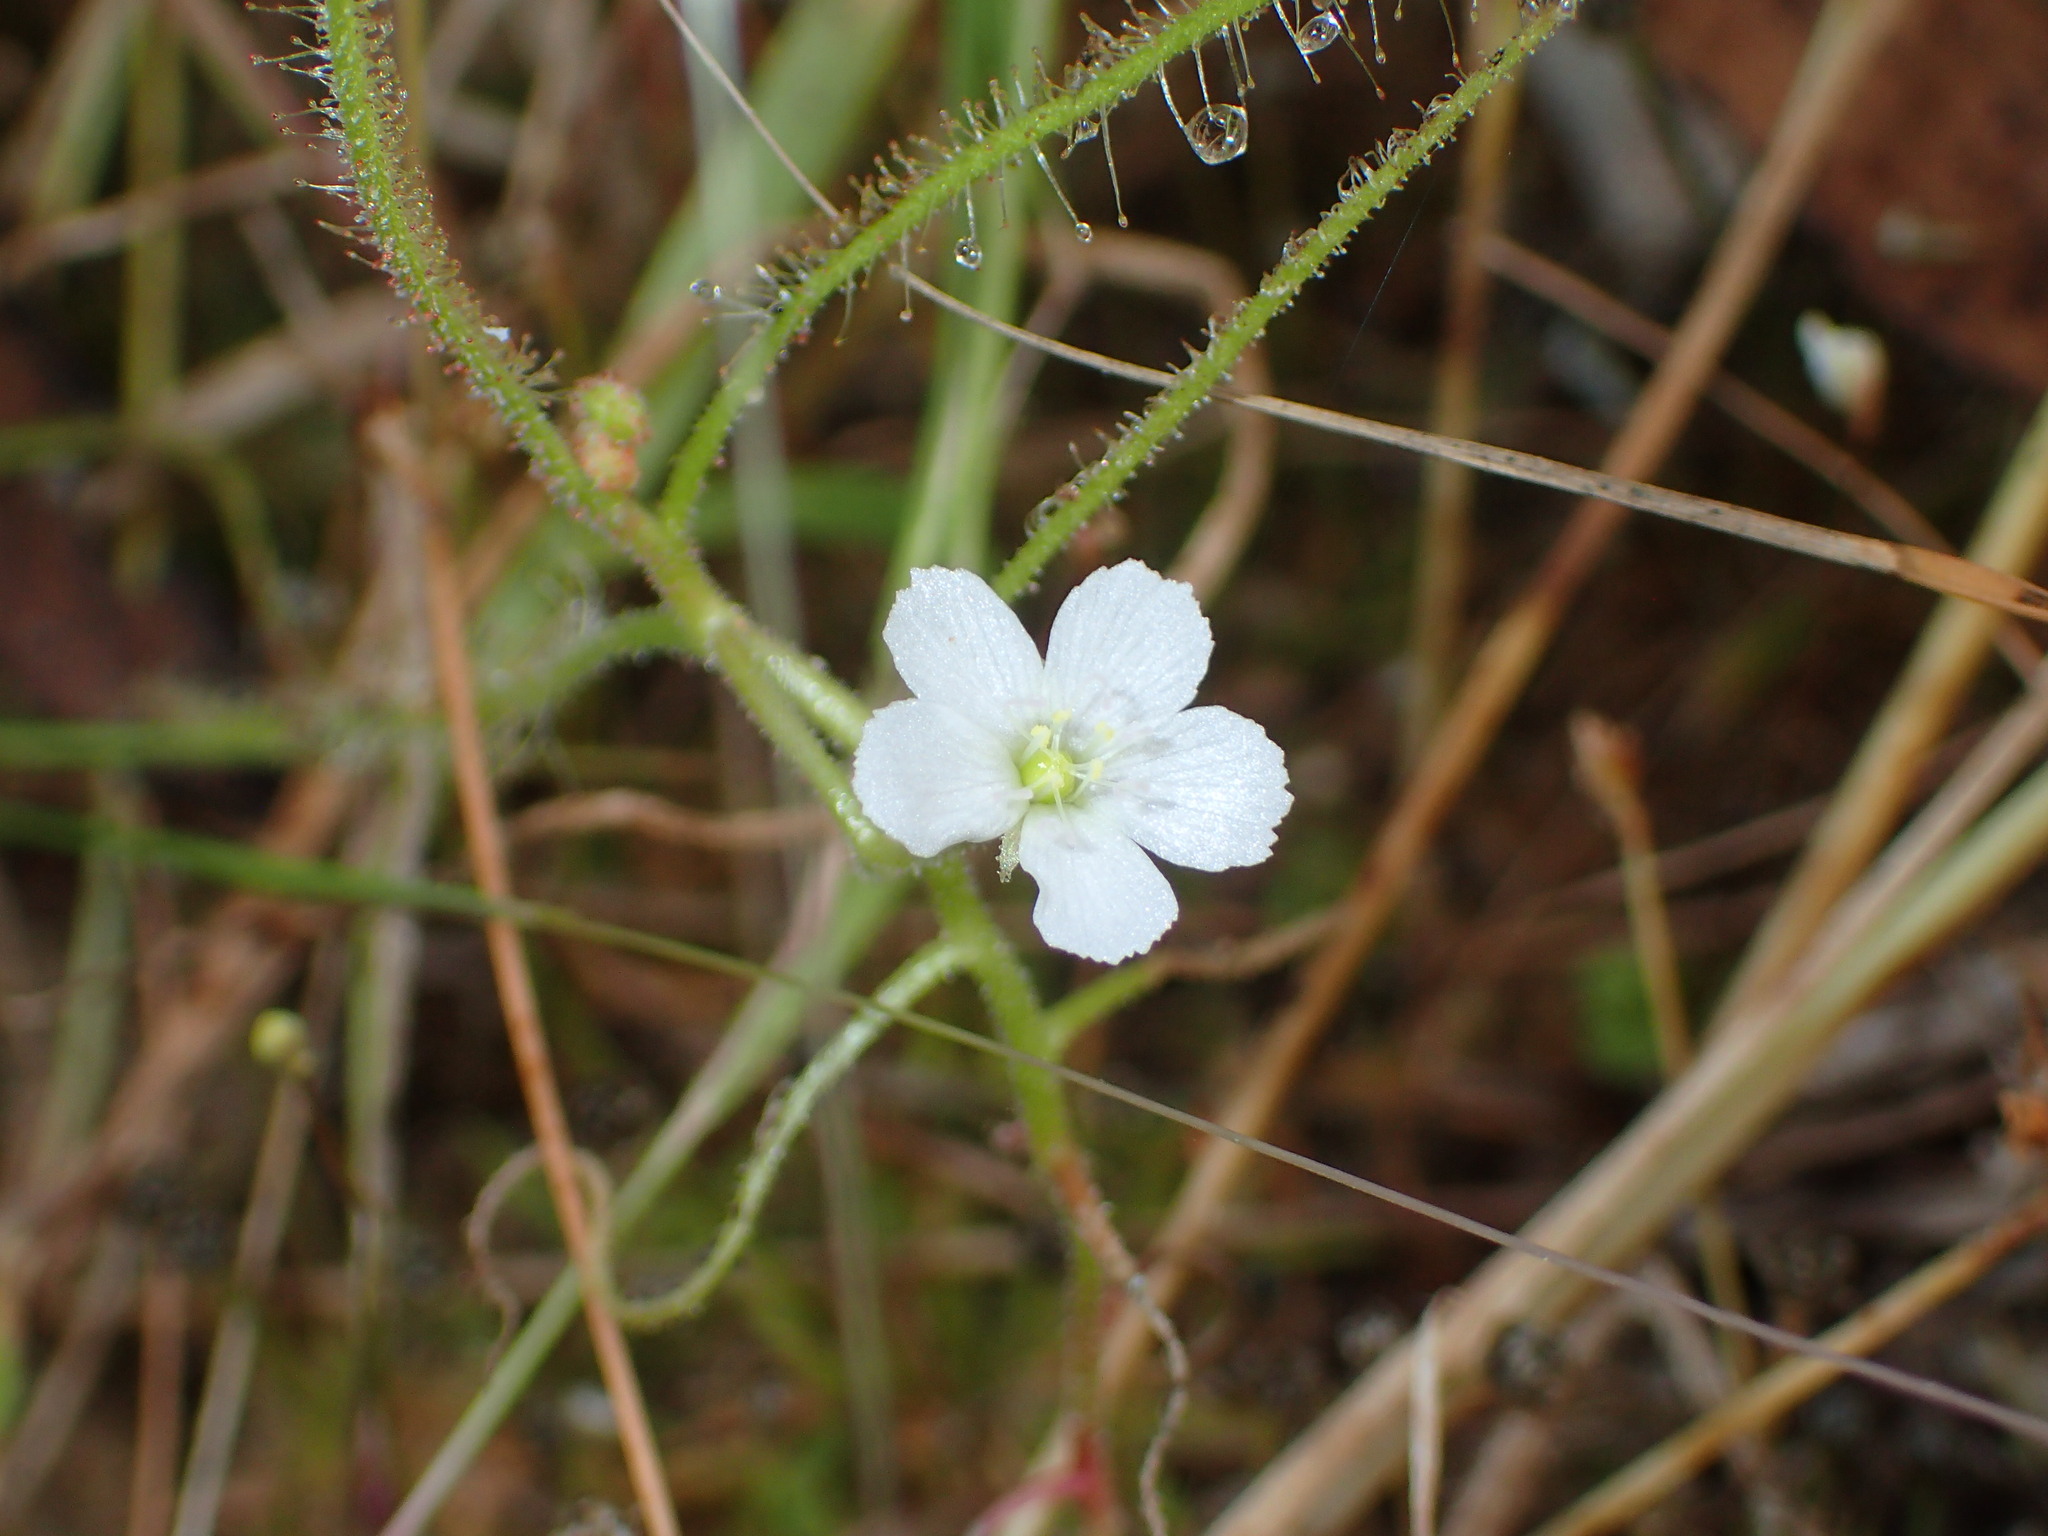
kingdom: Plantae
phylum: Tracheophyta
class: Magnoliopsida
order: Caryophyllales
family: Droseraceae
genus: Drosera
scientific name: Drosera indica
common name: Indian sundew
